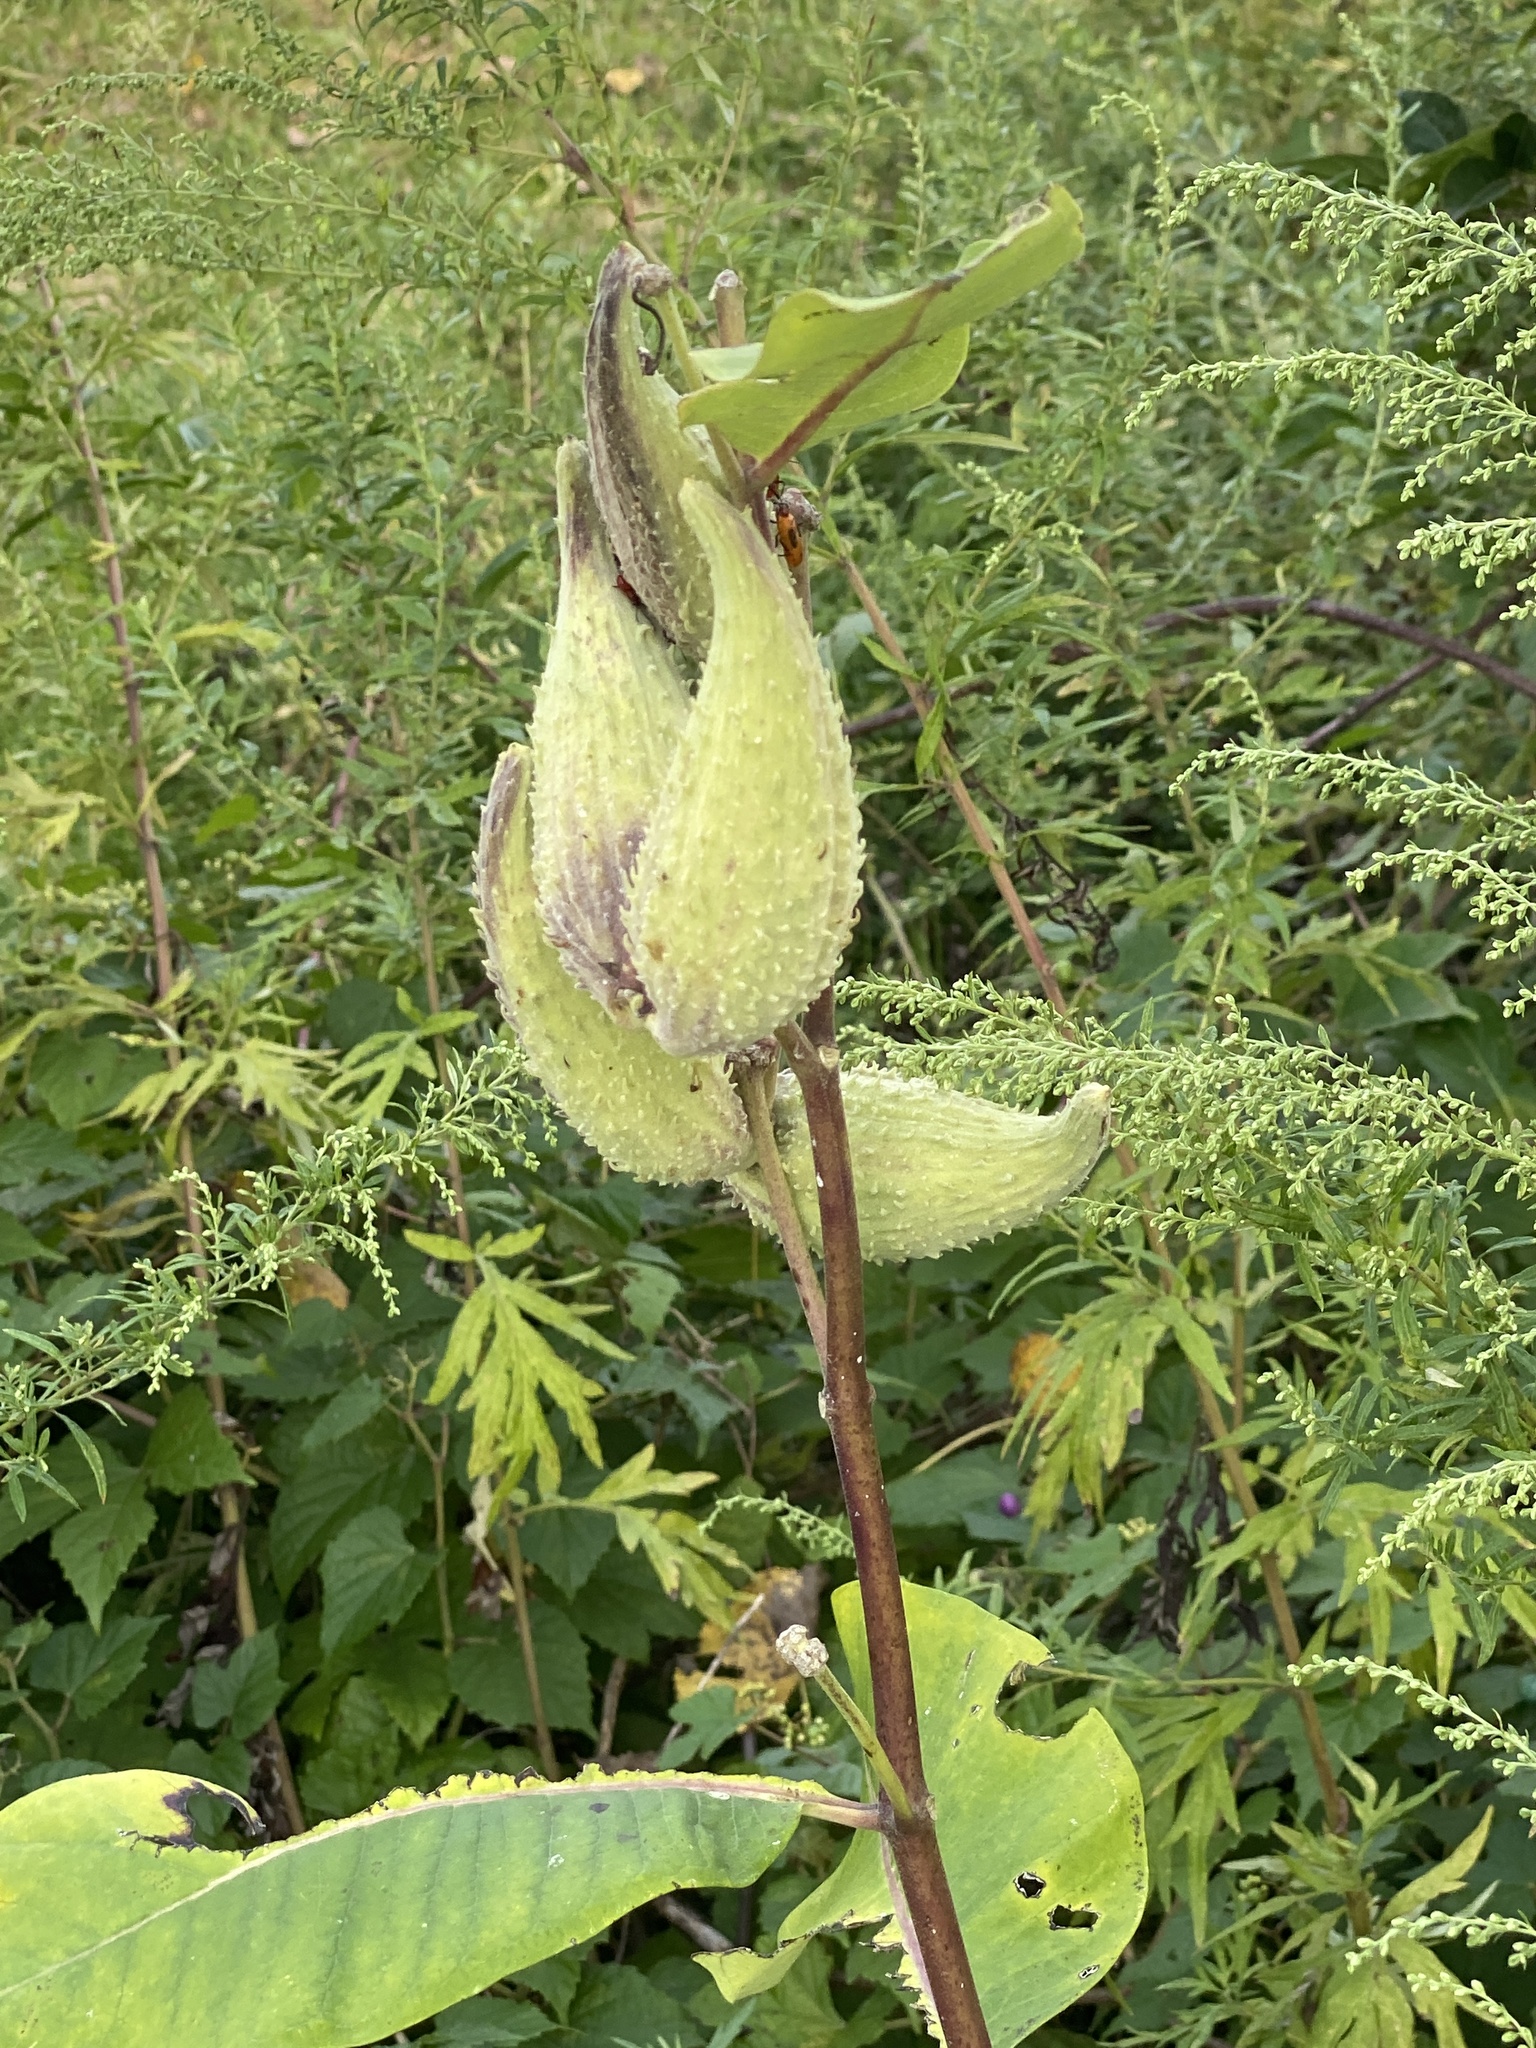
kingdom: Plantae
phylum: Tracheophyta
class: Magnoliopsida
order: Gentianales
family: Apocynaceae
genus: Asclepias
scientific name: Asclepias syriaca
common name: Common milkweed
